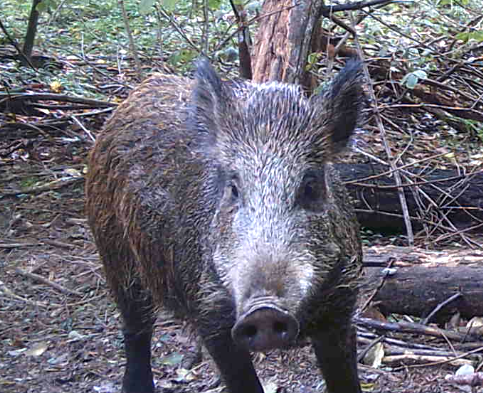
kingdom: Animalia
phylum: Chordata
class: Mammalia
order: Artiodactyla
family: Suidae
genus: Sus
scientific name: Sus scrofa
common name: Wild boar
